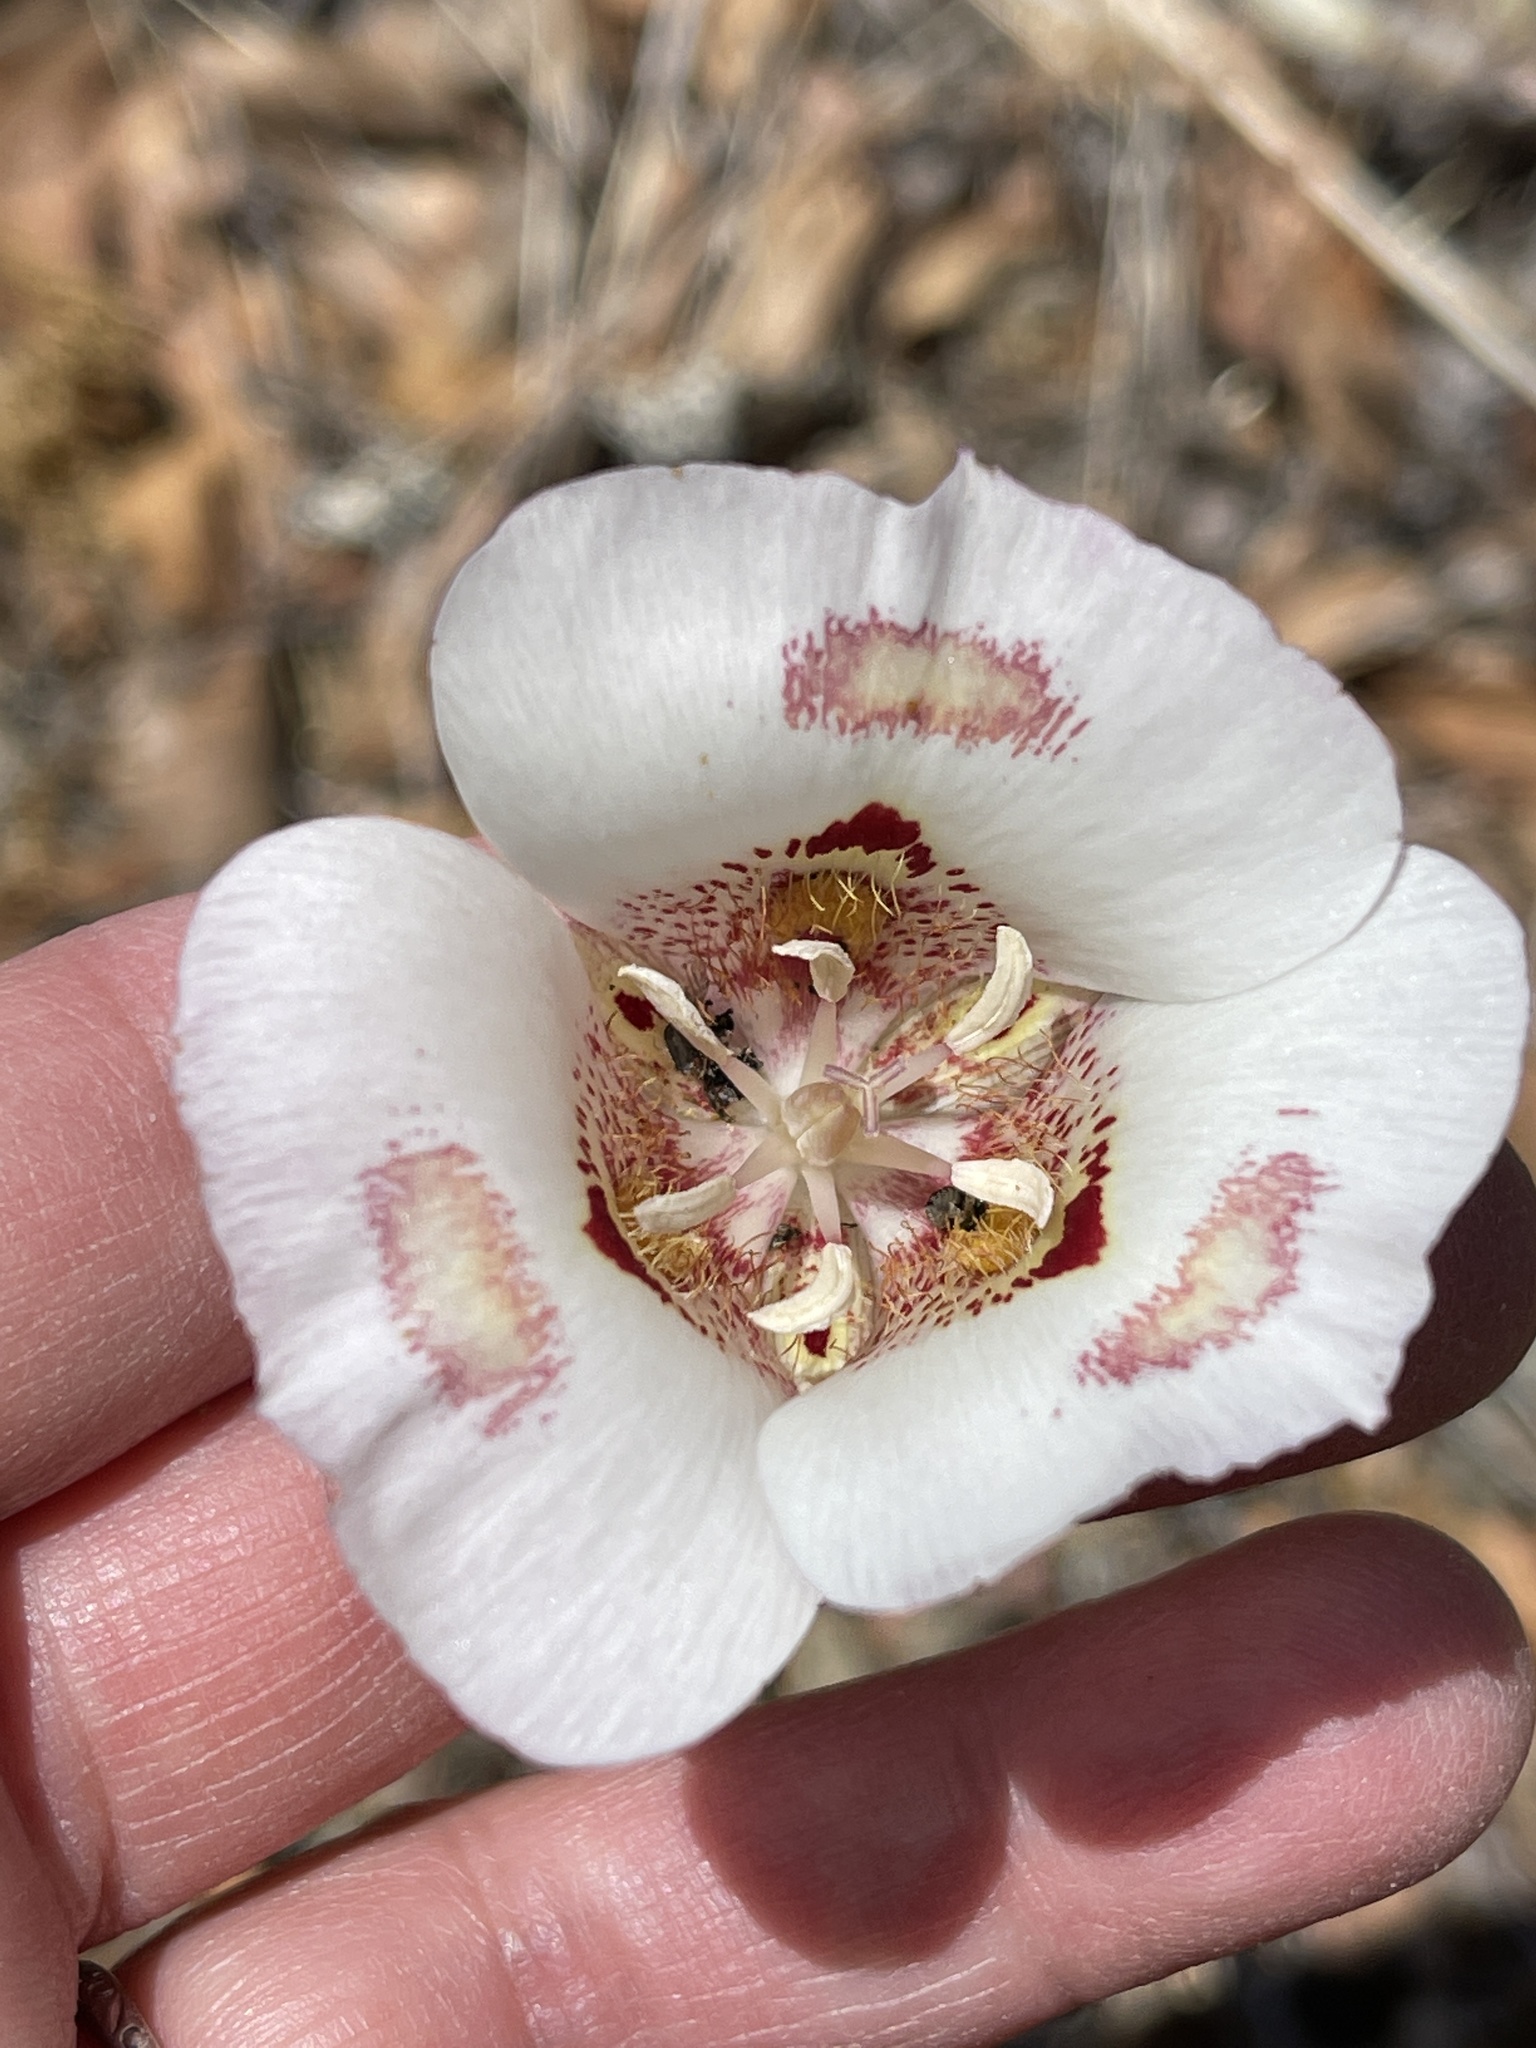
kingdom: Plantae
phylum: Tracheophyta
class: Liliopsida
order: Liliales
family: Liliaceae
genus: Calochortus
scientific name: Calochortus venustus
